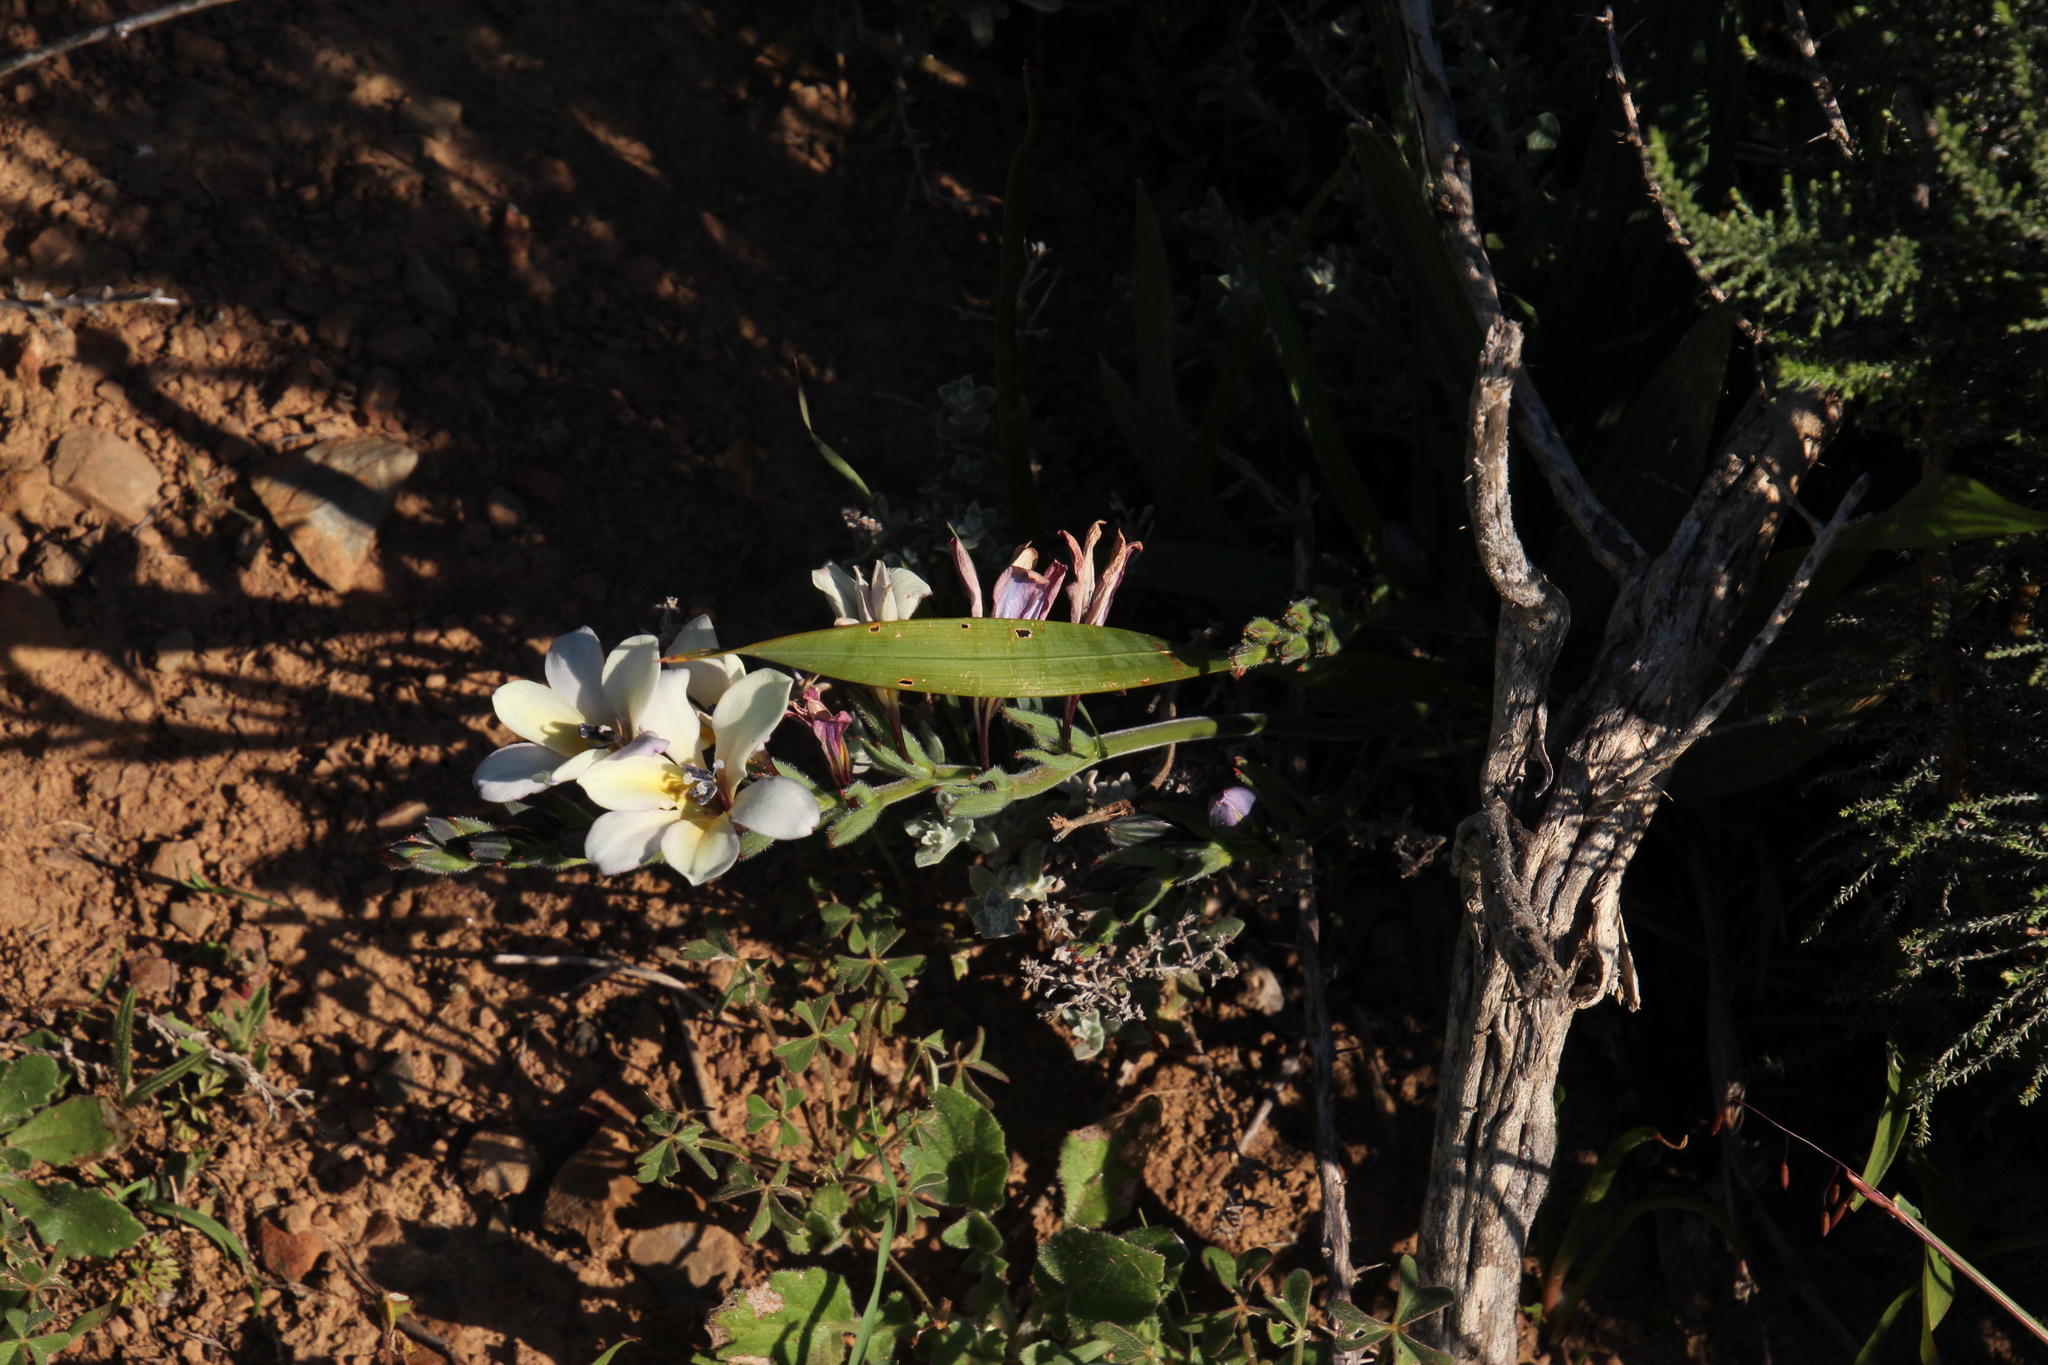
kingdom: Plantae
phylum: Tracheophyta
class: Liliopsida
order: Asparagales
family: Iridaceae
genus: Babiana
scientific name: Babiana fragrans
